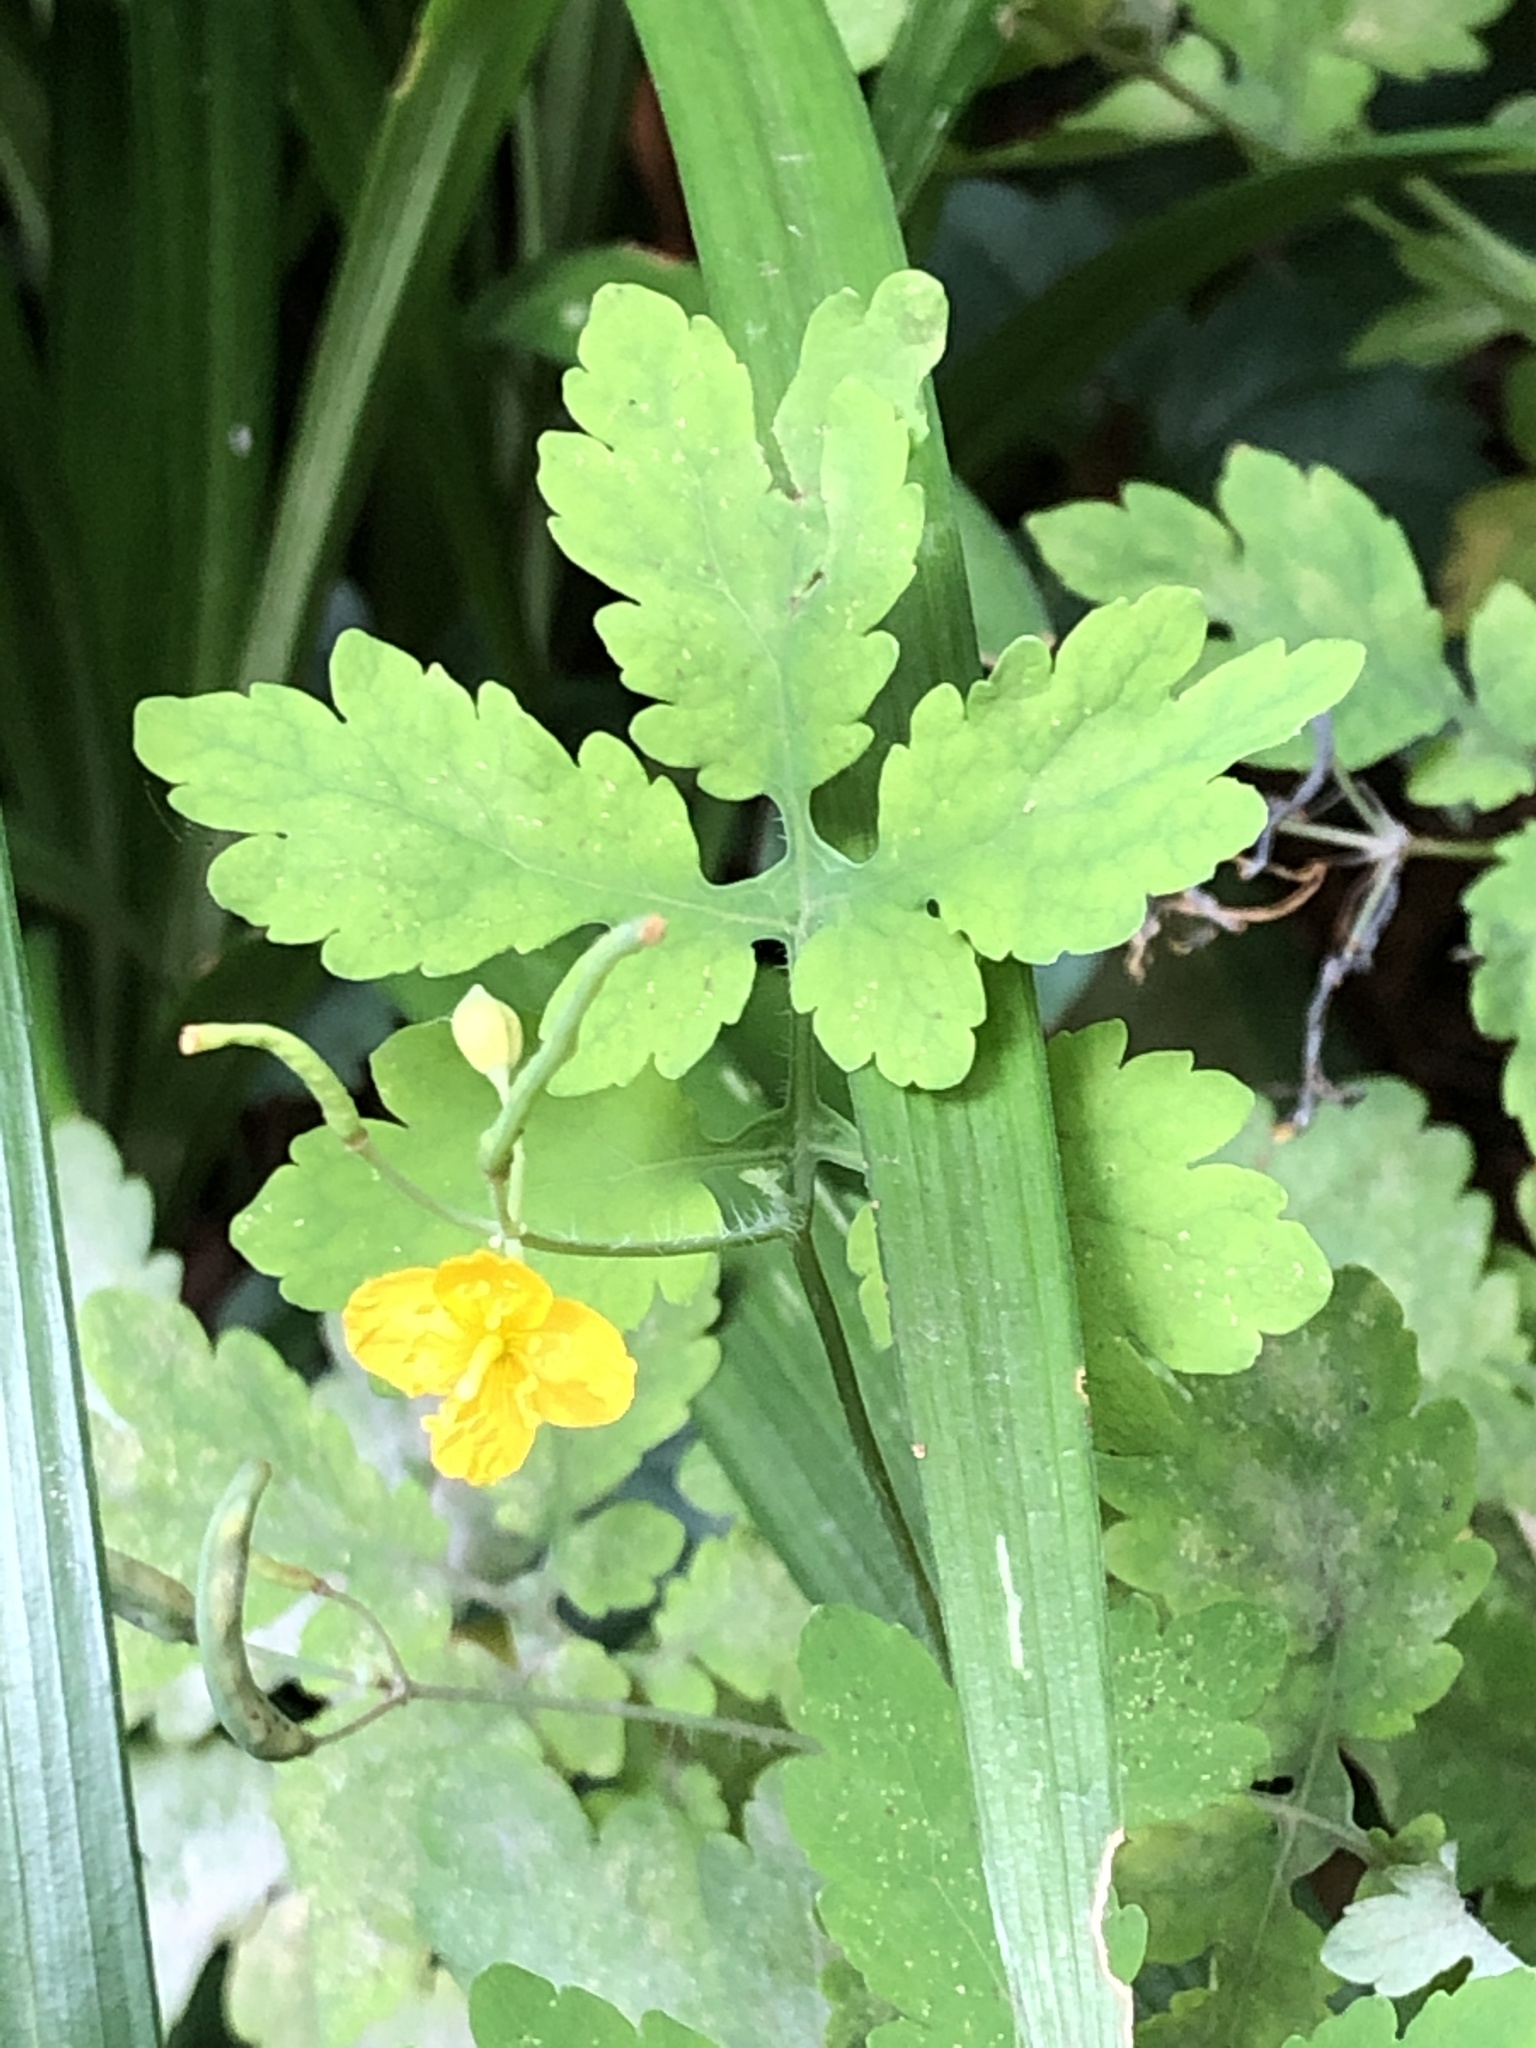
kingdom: Plantae
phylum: Tracheophyta
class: Magnoliopsida
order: Ranunculales
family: Papaveraceae
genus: Chelidonium
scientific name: Chelidonium majus
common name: Greater celandine
